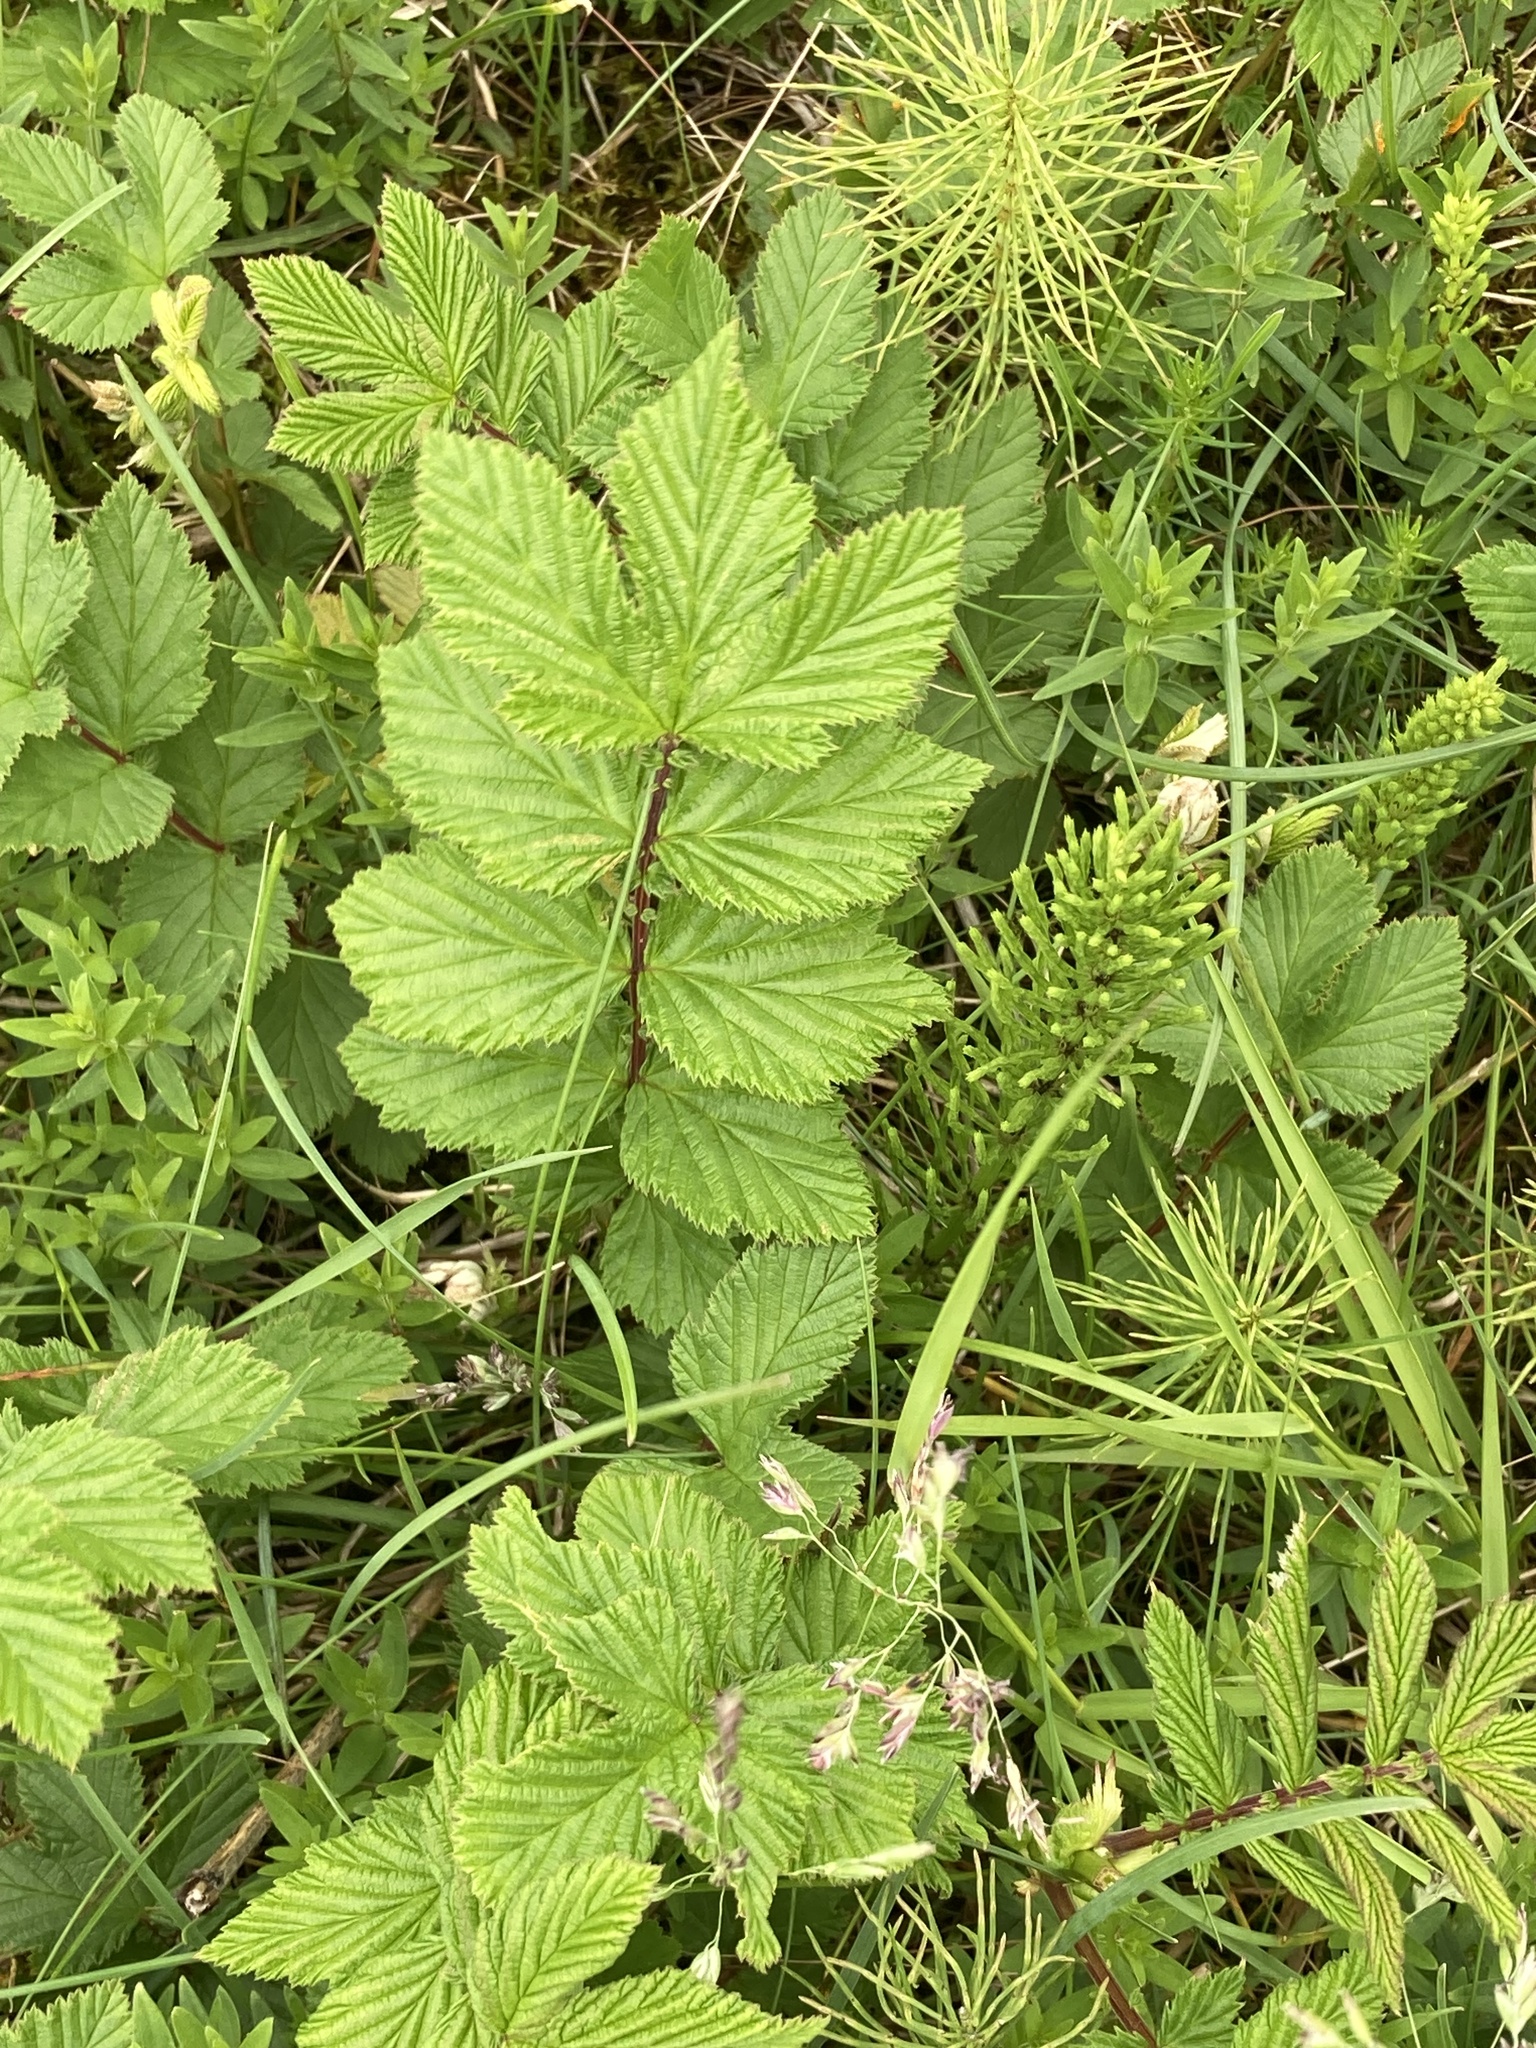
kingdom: Plantae
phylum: Tracheophyta
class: Magnoliopsida
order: Rosales
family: Rosaceae
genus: Filipendula
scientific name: Filipendula ulmaria
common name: Meadowsweet
